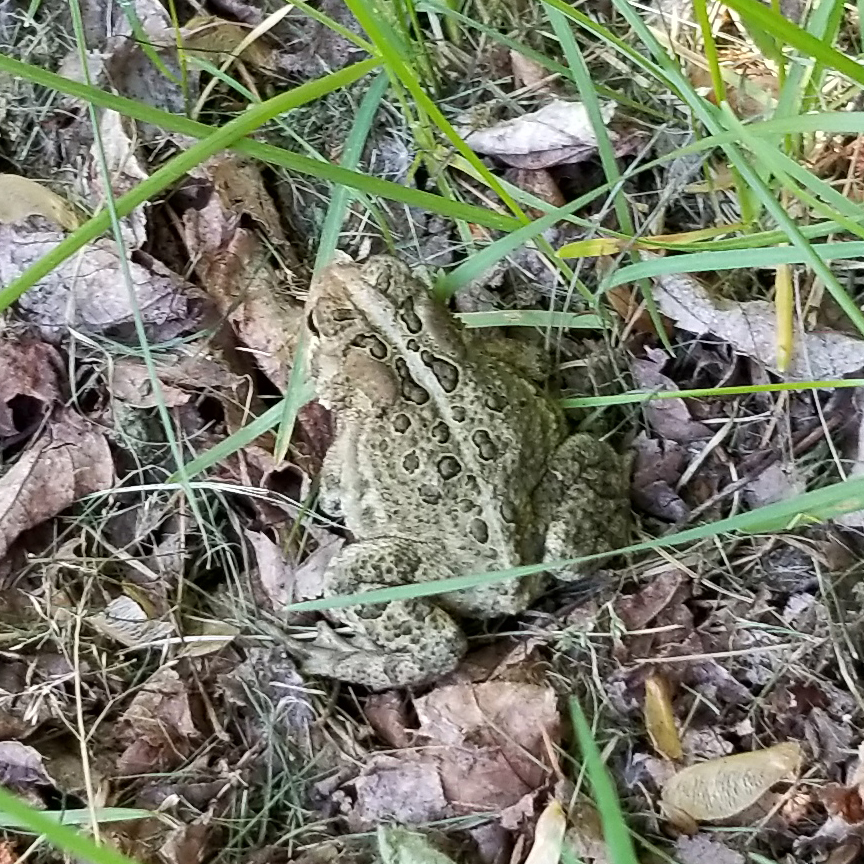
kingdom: Animalia
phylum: Chordata
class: Amphibia
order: Anura
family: Bufonidae
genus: Anaxyrus
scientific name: Anaxyrus americanus
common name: American toad
